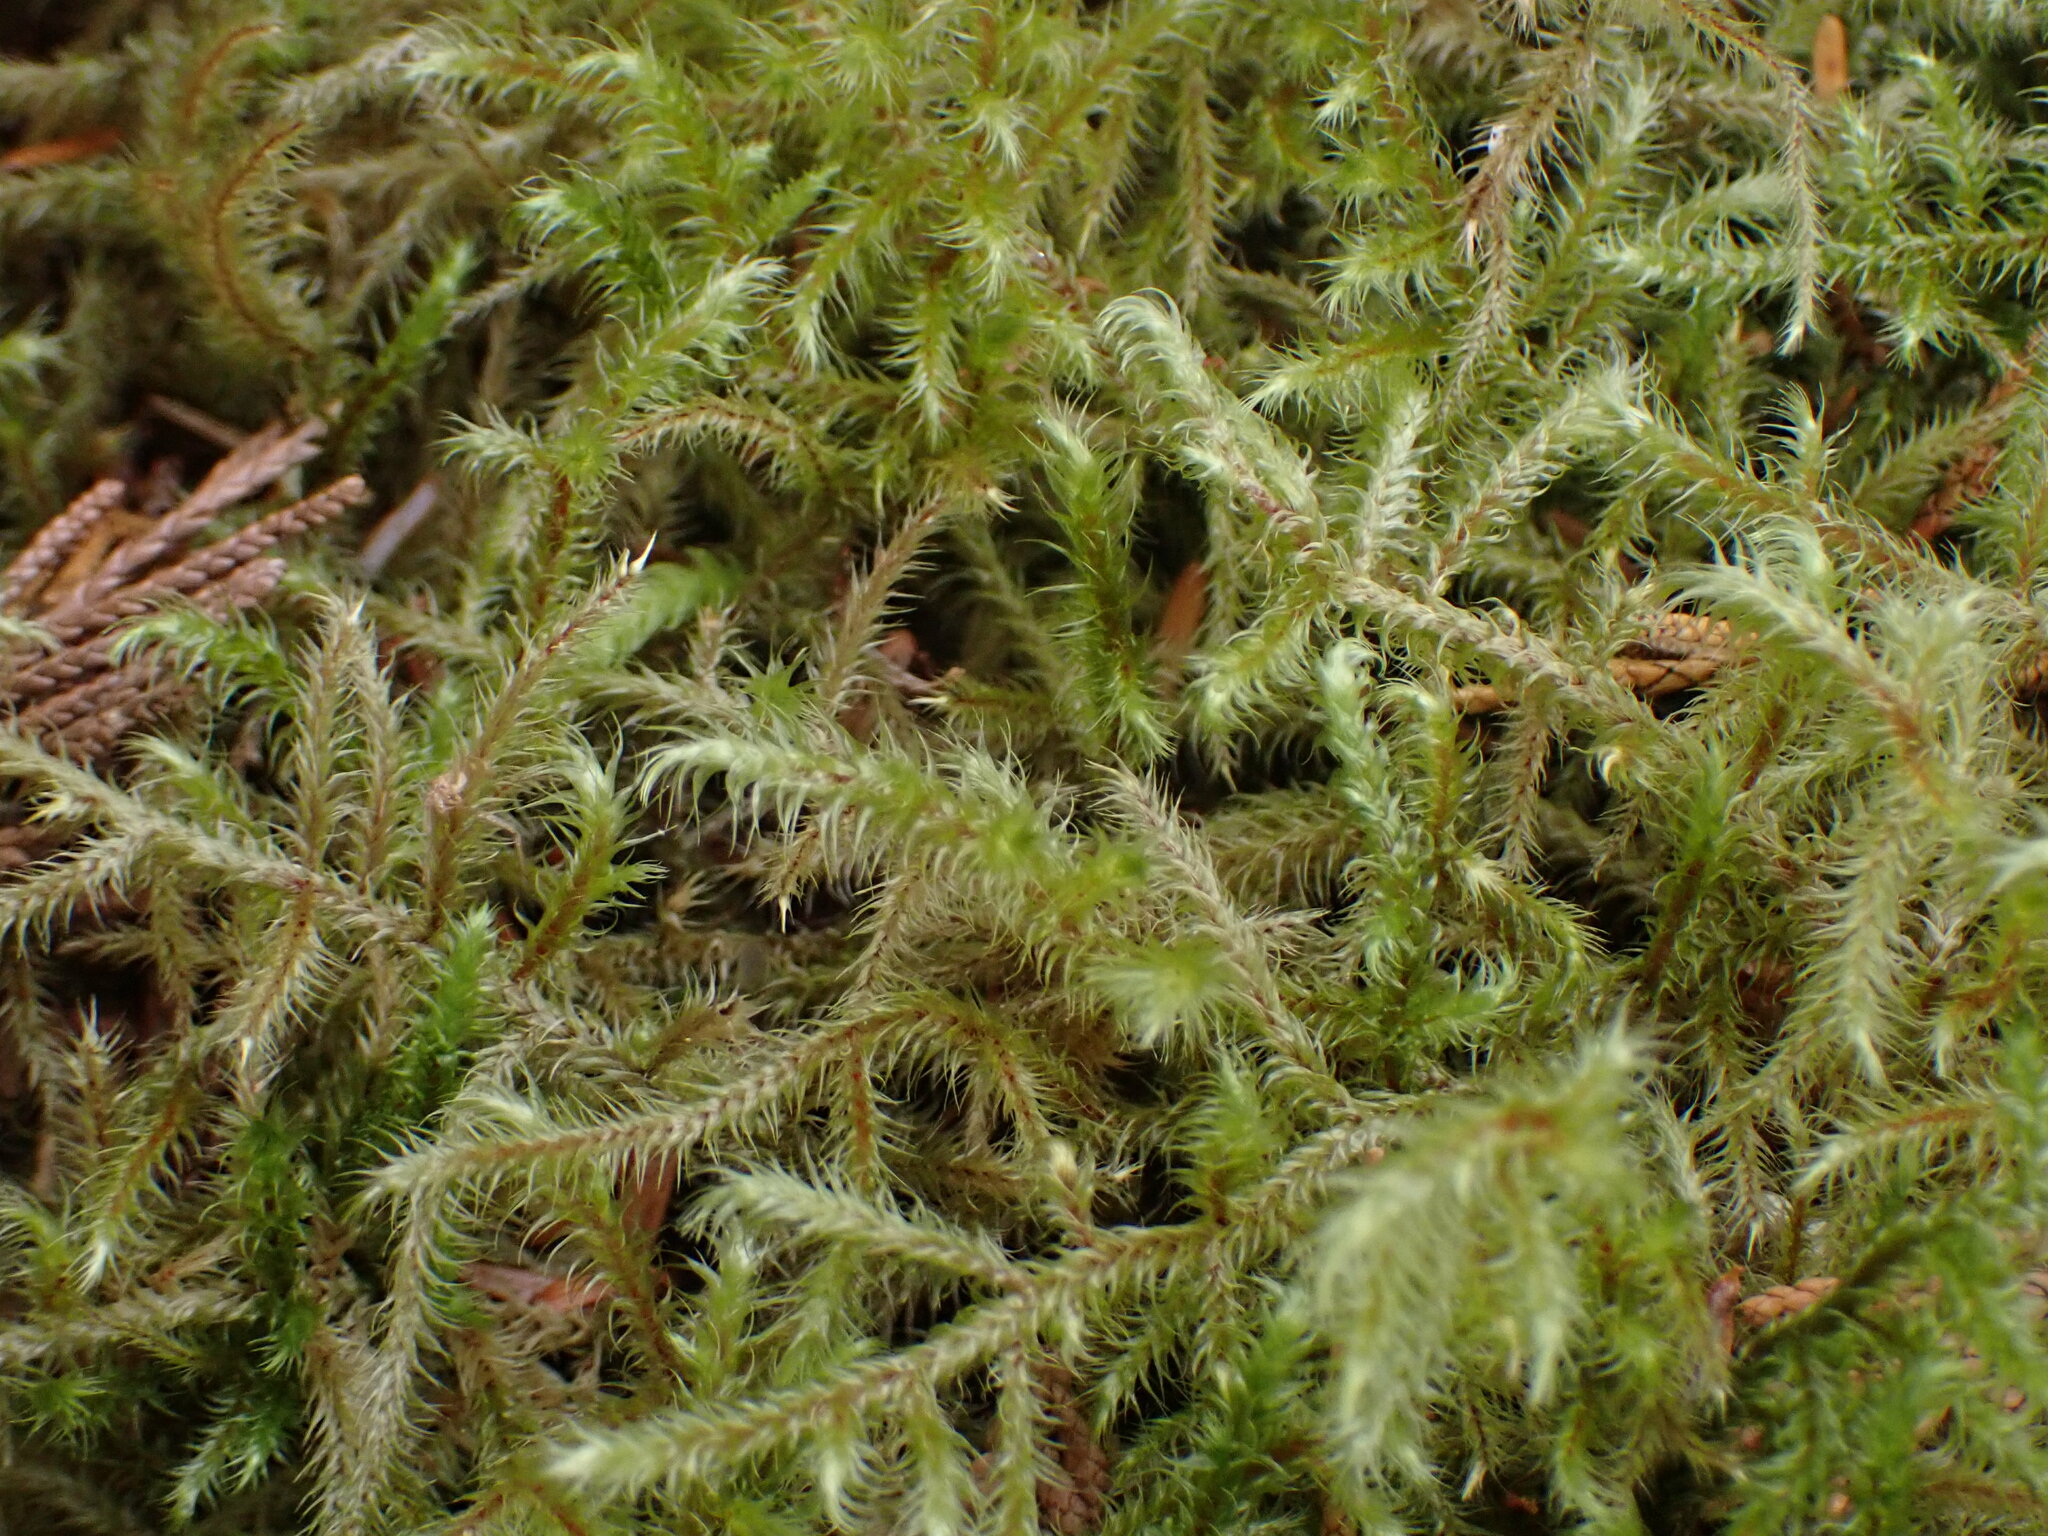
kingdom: Plantae
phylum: Bryophyta
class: Bryopsida
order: Hypnales
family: Hylocomiaceae
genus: Rhytidiadelphus
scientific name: Rhytidiadelphus loreus
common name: Lanky moss
